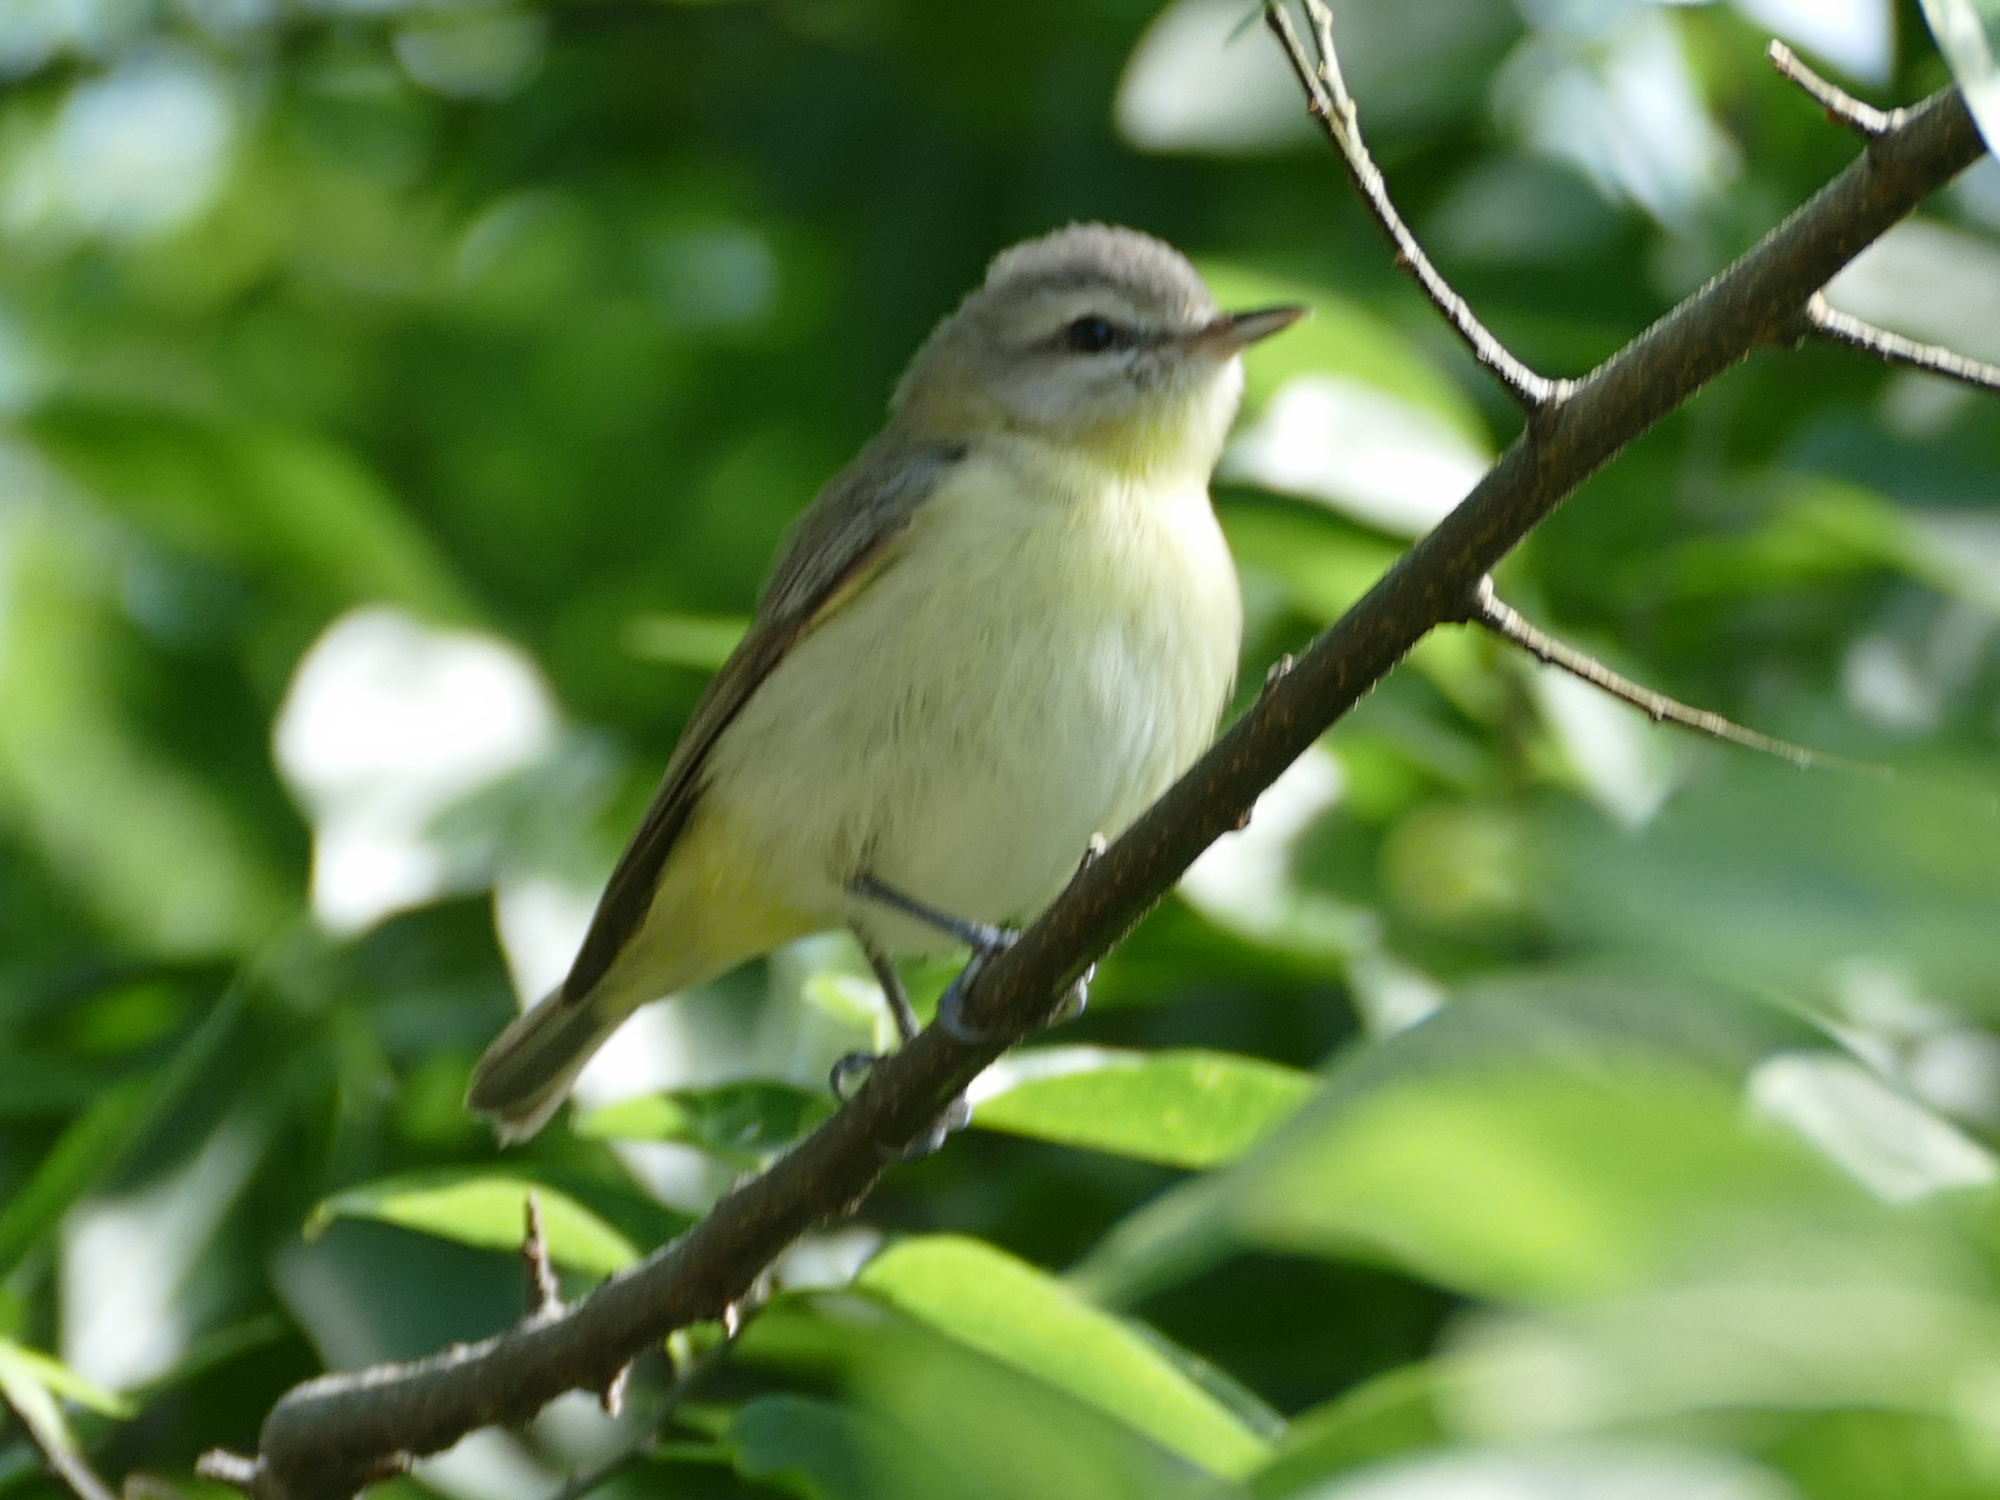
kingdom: Animalia
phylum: Chordata
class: Aves
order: Passeriformes
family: Vireonidae
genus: Vireo
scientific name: Vireo philadelphicus
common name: Philadelphia vireo
